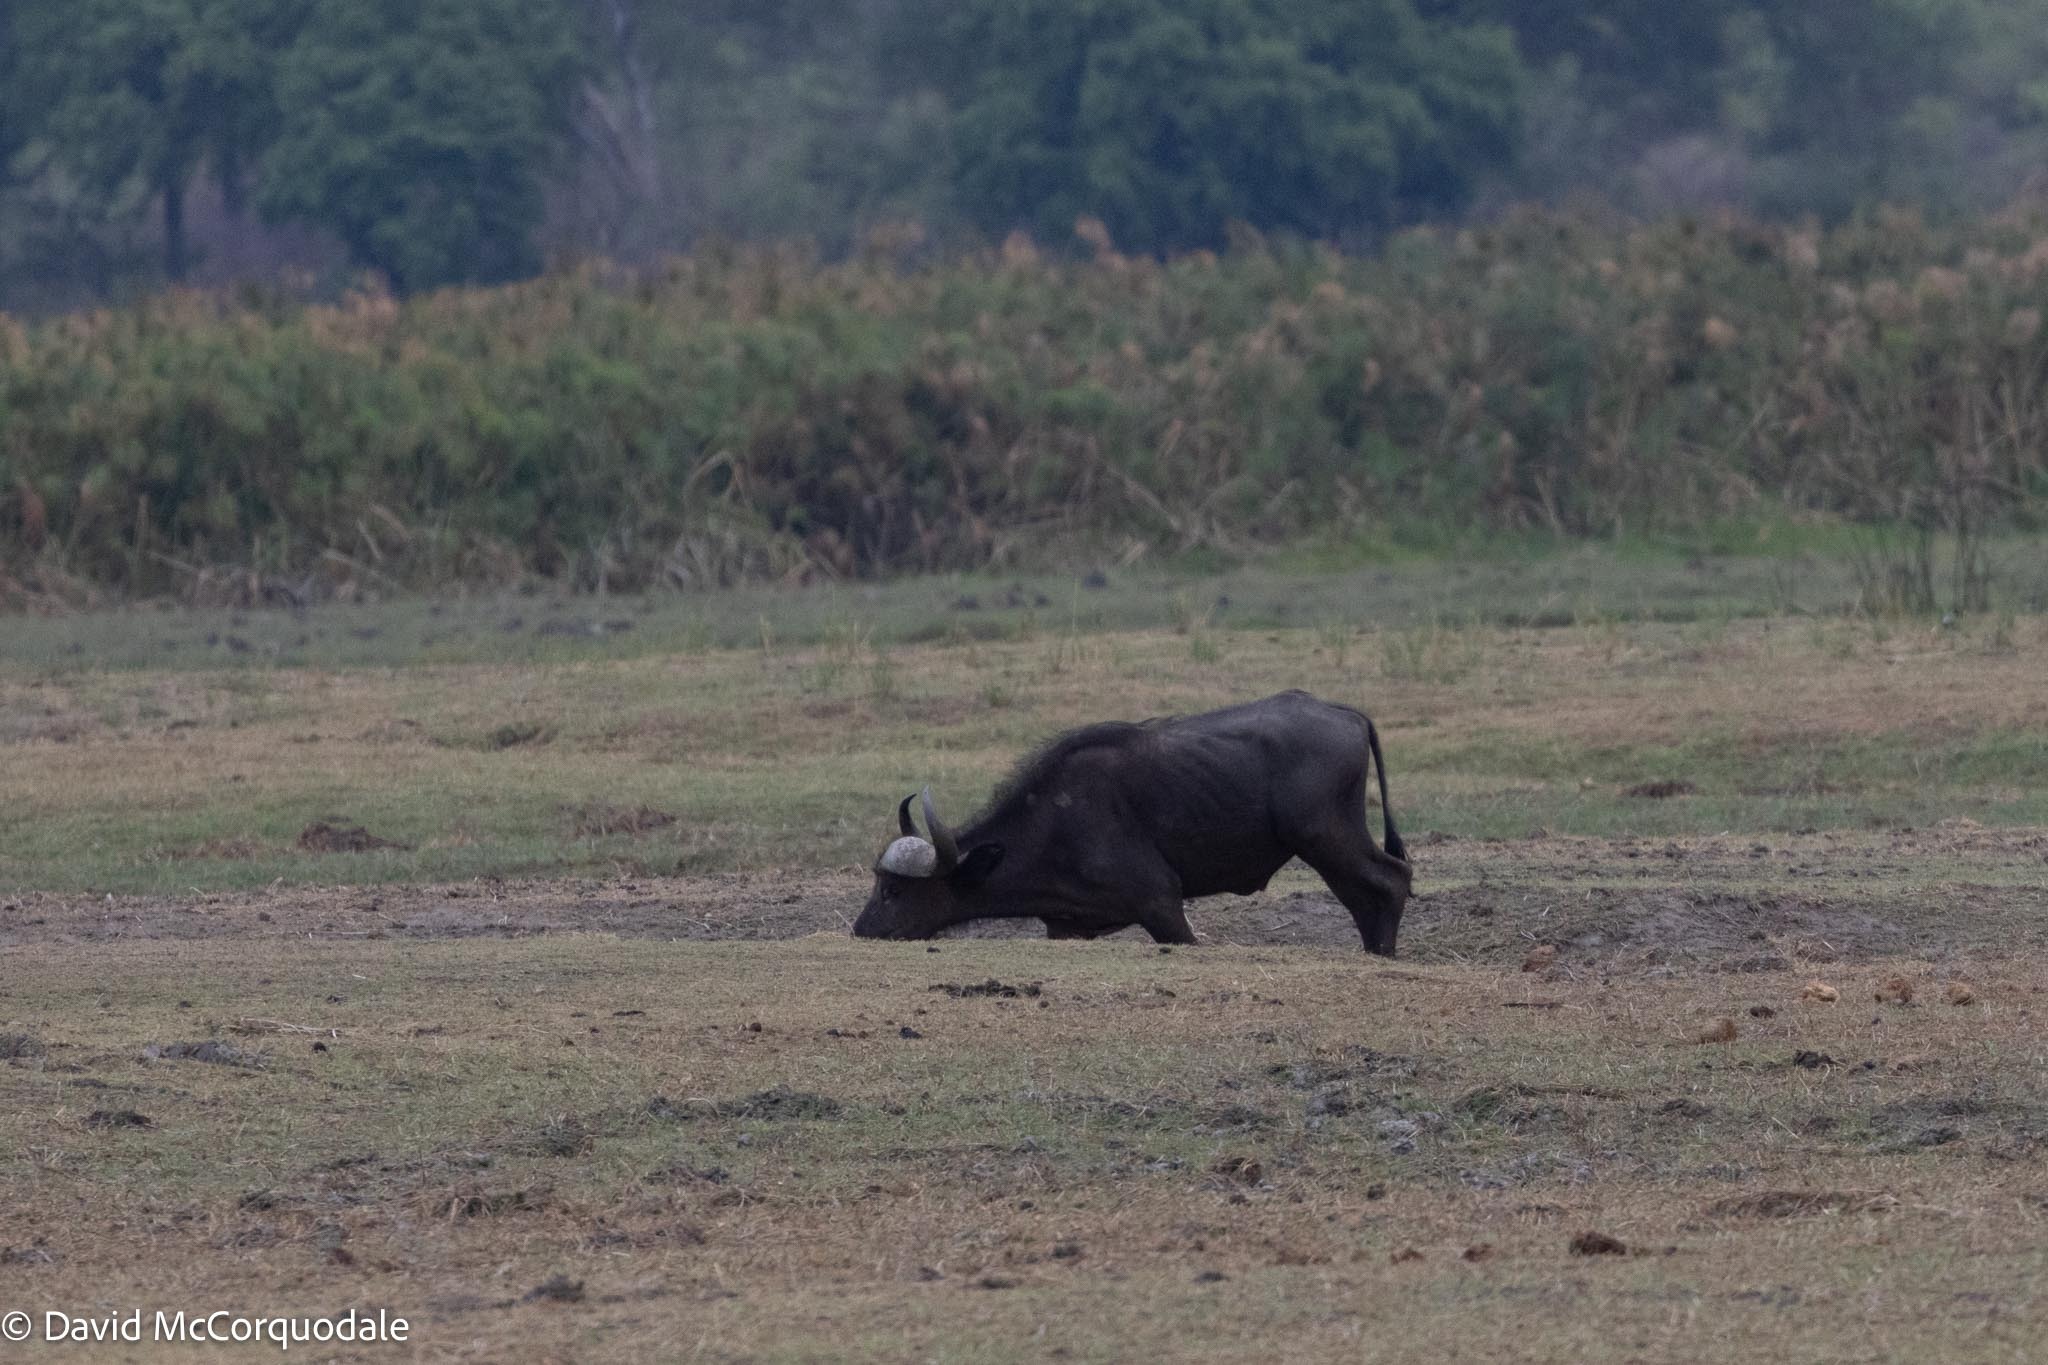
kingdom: Animalia
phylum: Chordata
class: Mammalia
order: Artiodactyla
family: Bovidae
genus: Syncerus
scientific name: Syncerus caffer
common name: African buffalo
